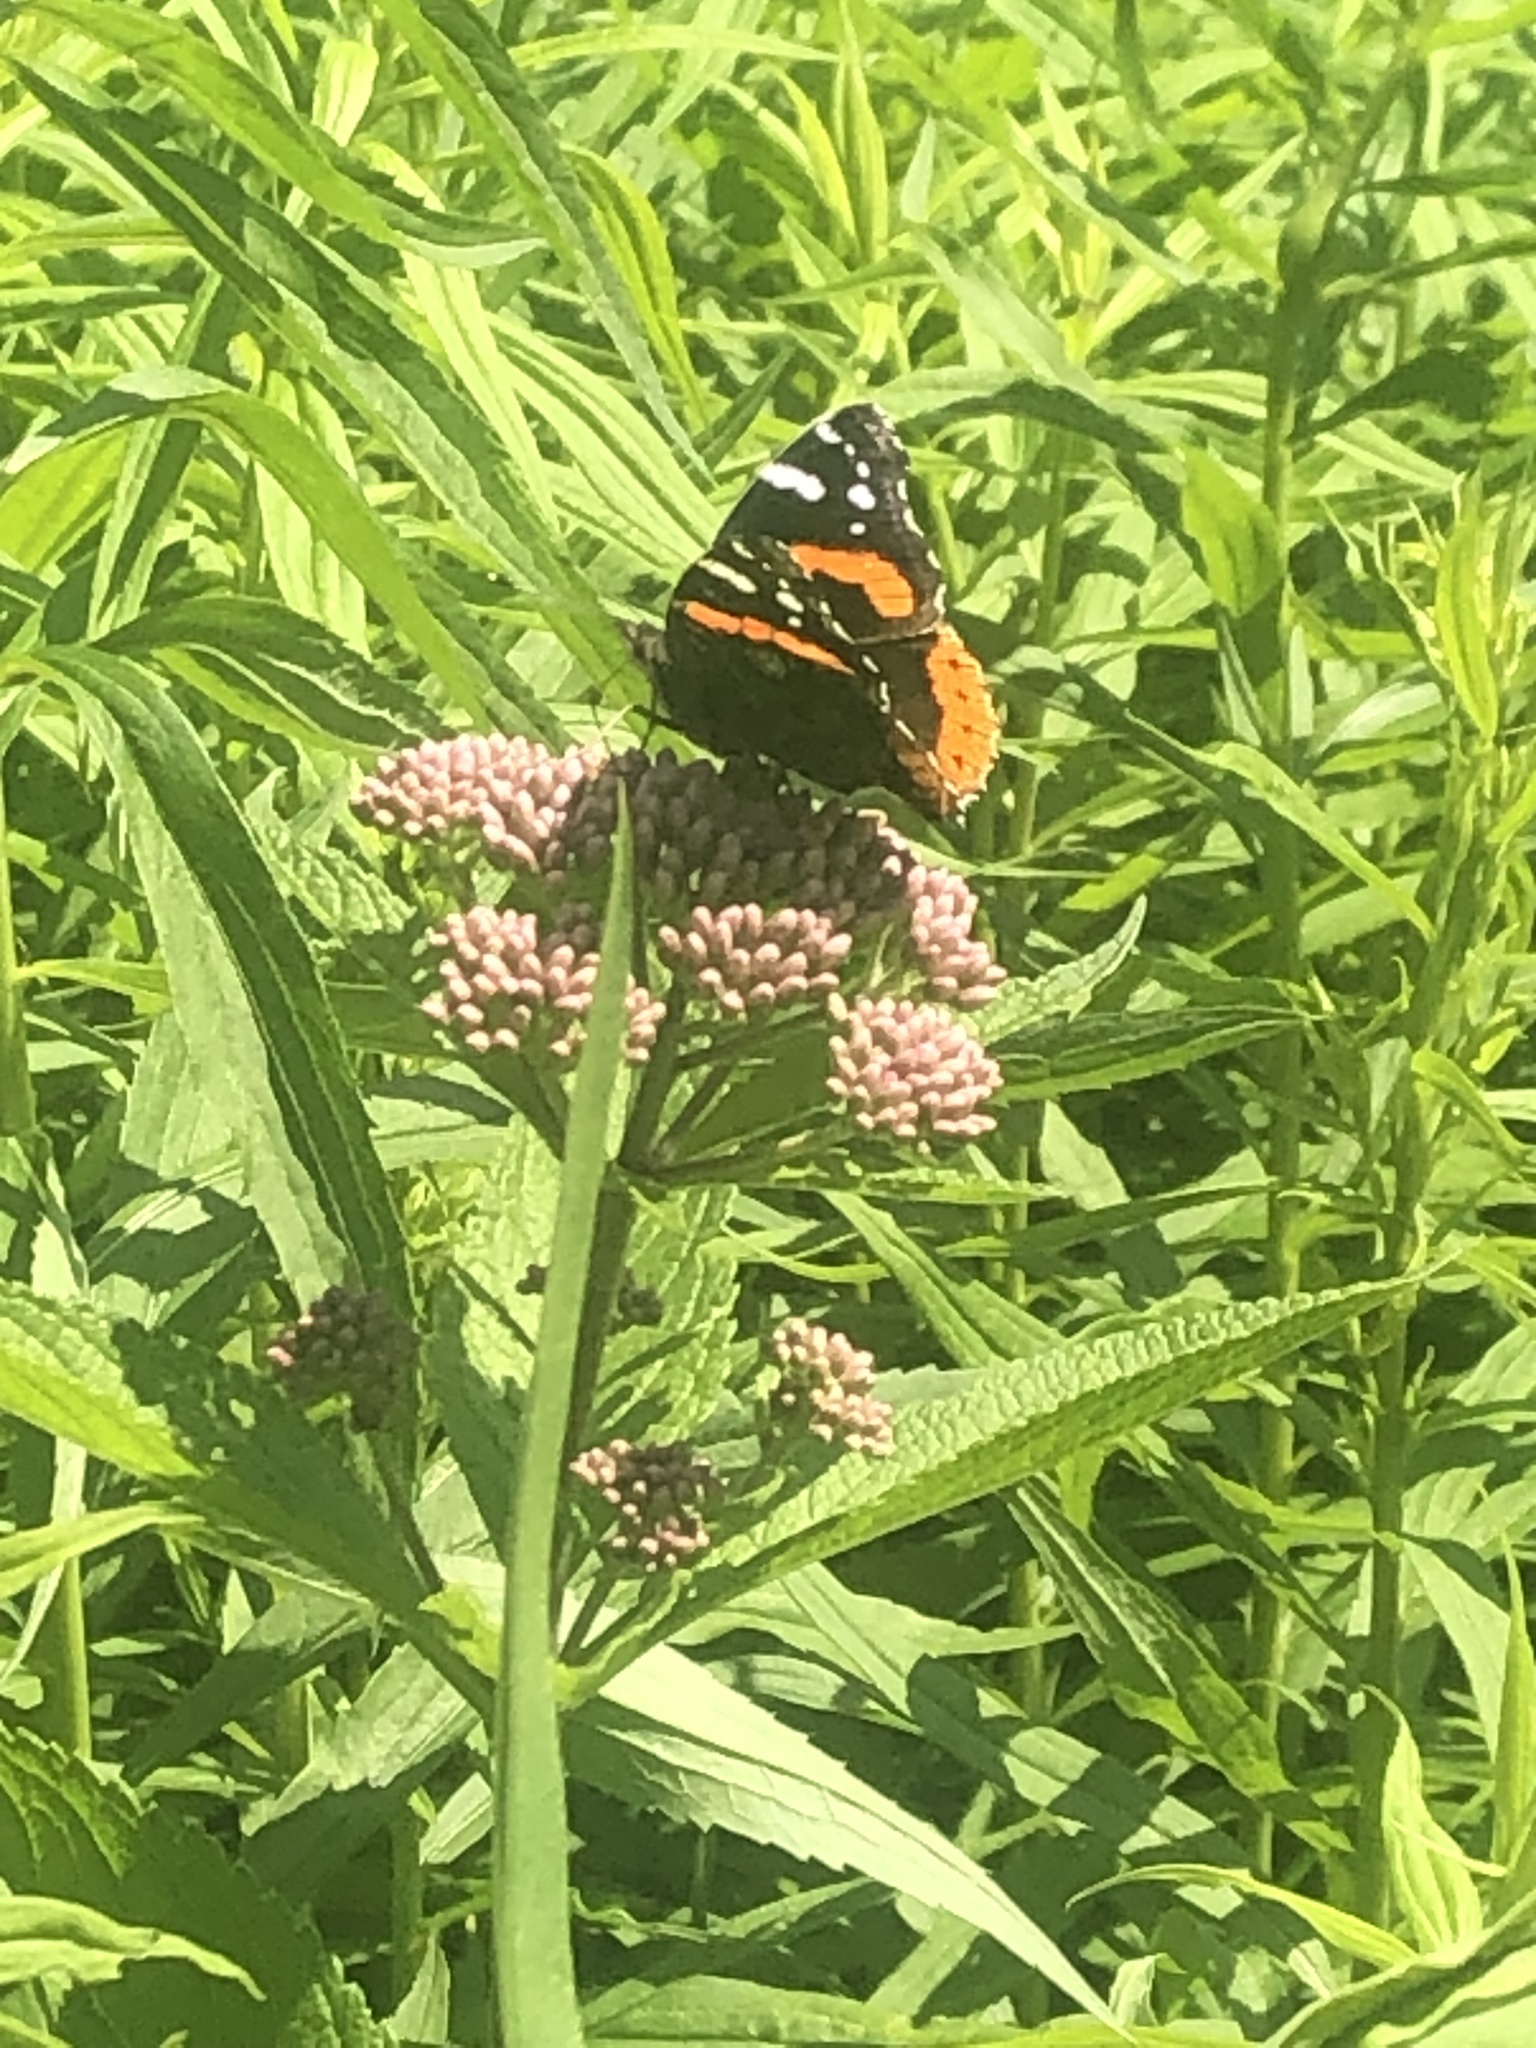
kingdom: Animalia
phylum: Arthropoda
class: Insecta
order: Lepidoptera
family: Nymphalidae
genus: Vanessa
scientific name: Vanessa atalanta
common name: Red admiral
